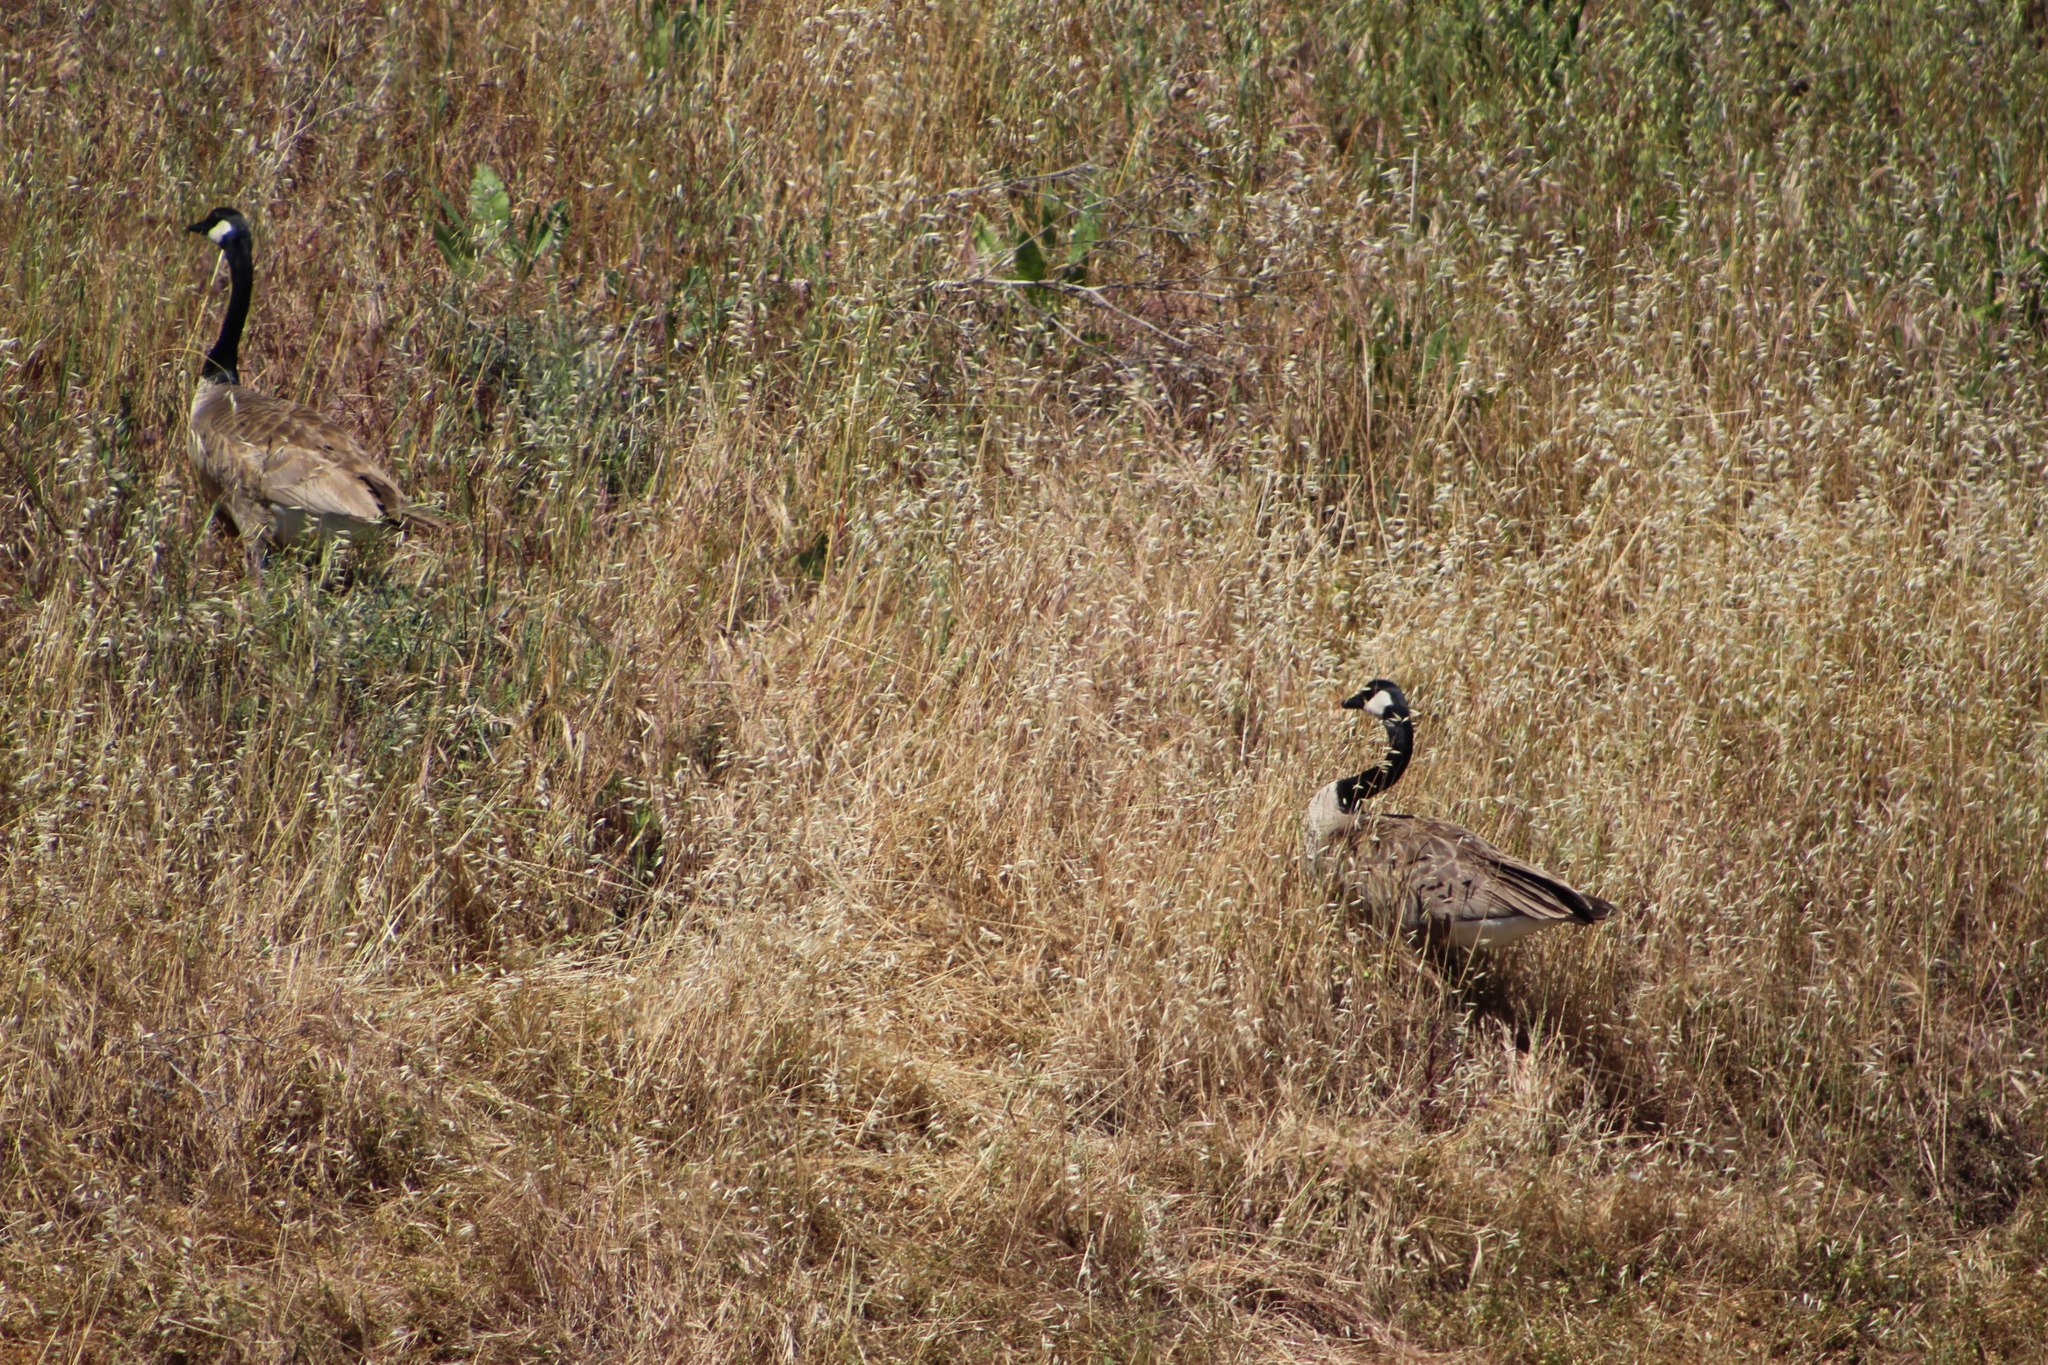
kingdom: Animalia
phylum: Chordata
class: Aves
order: Anseriformes
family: Anatidae
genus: Branta
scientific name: Branta canadensis
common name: Canada goose
